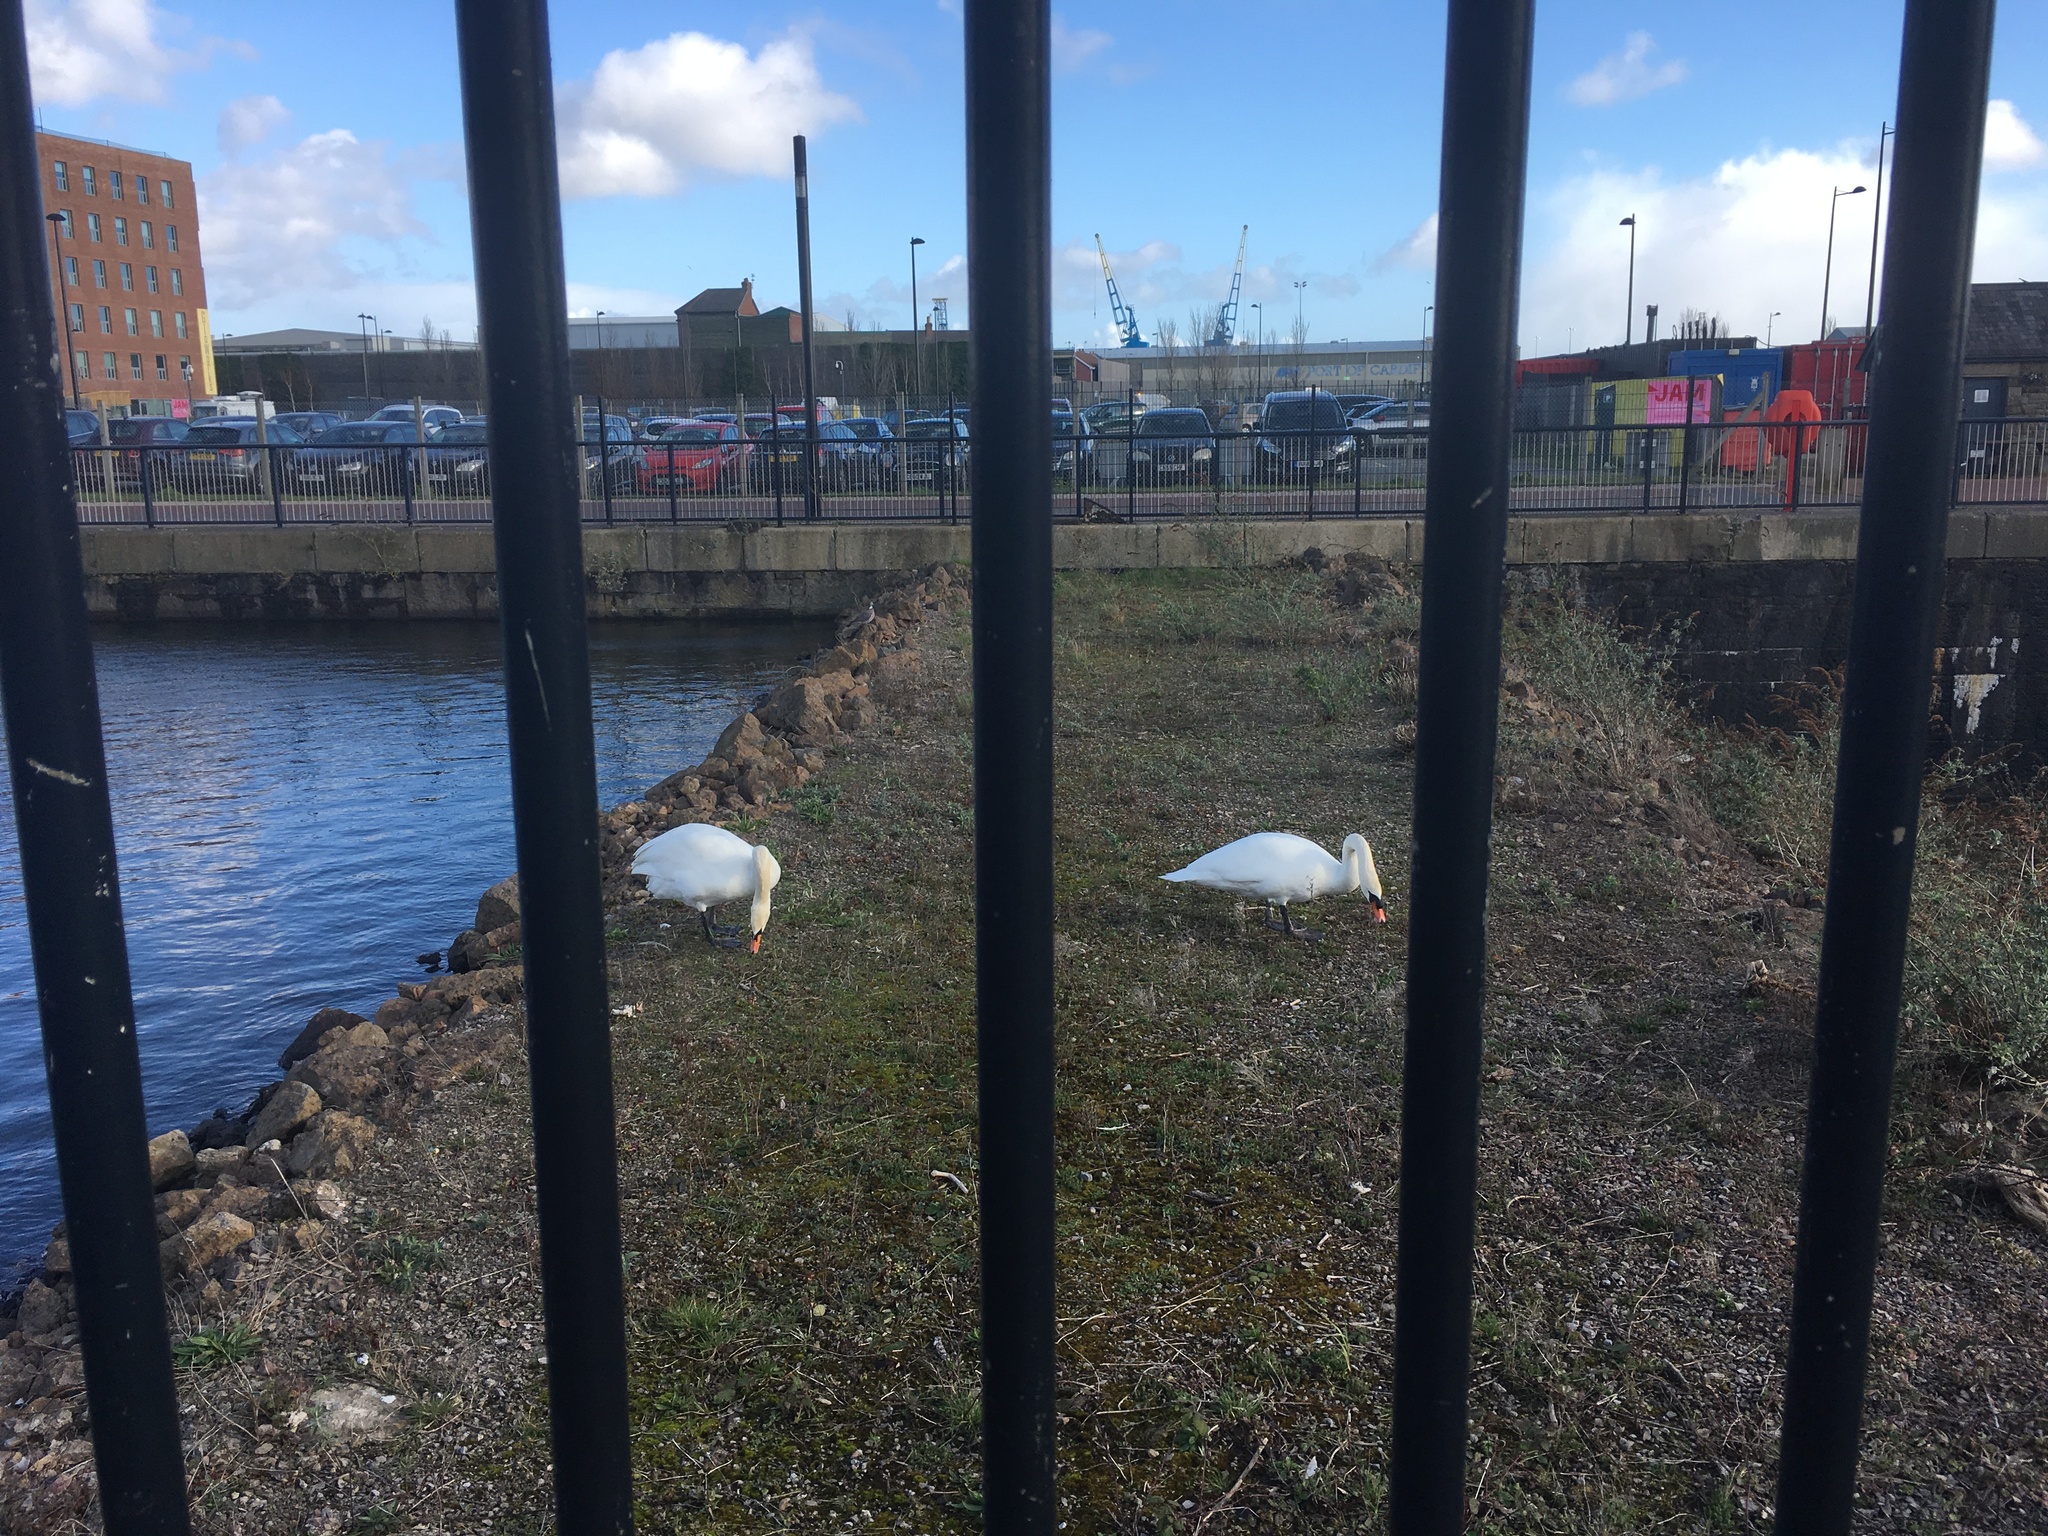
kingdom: Animalia
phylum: Chordata
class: Aves
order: Anseriformes
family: Anatidae
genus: Cygnus
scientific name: Cygnus olor
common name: Mute swan
